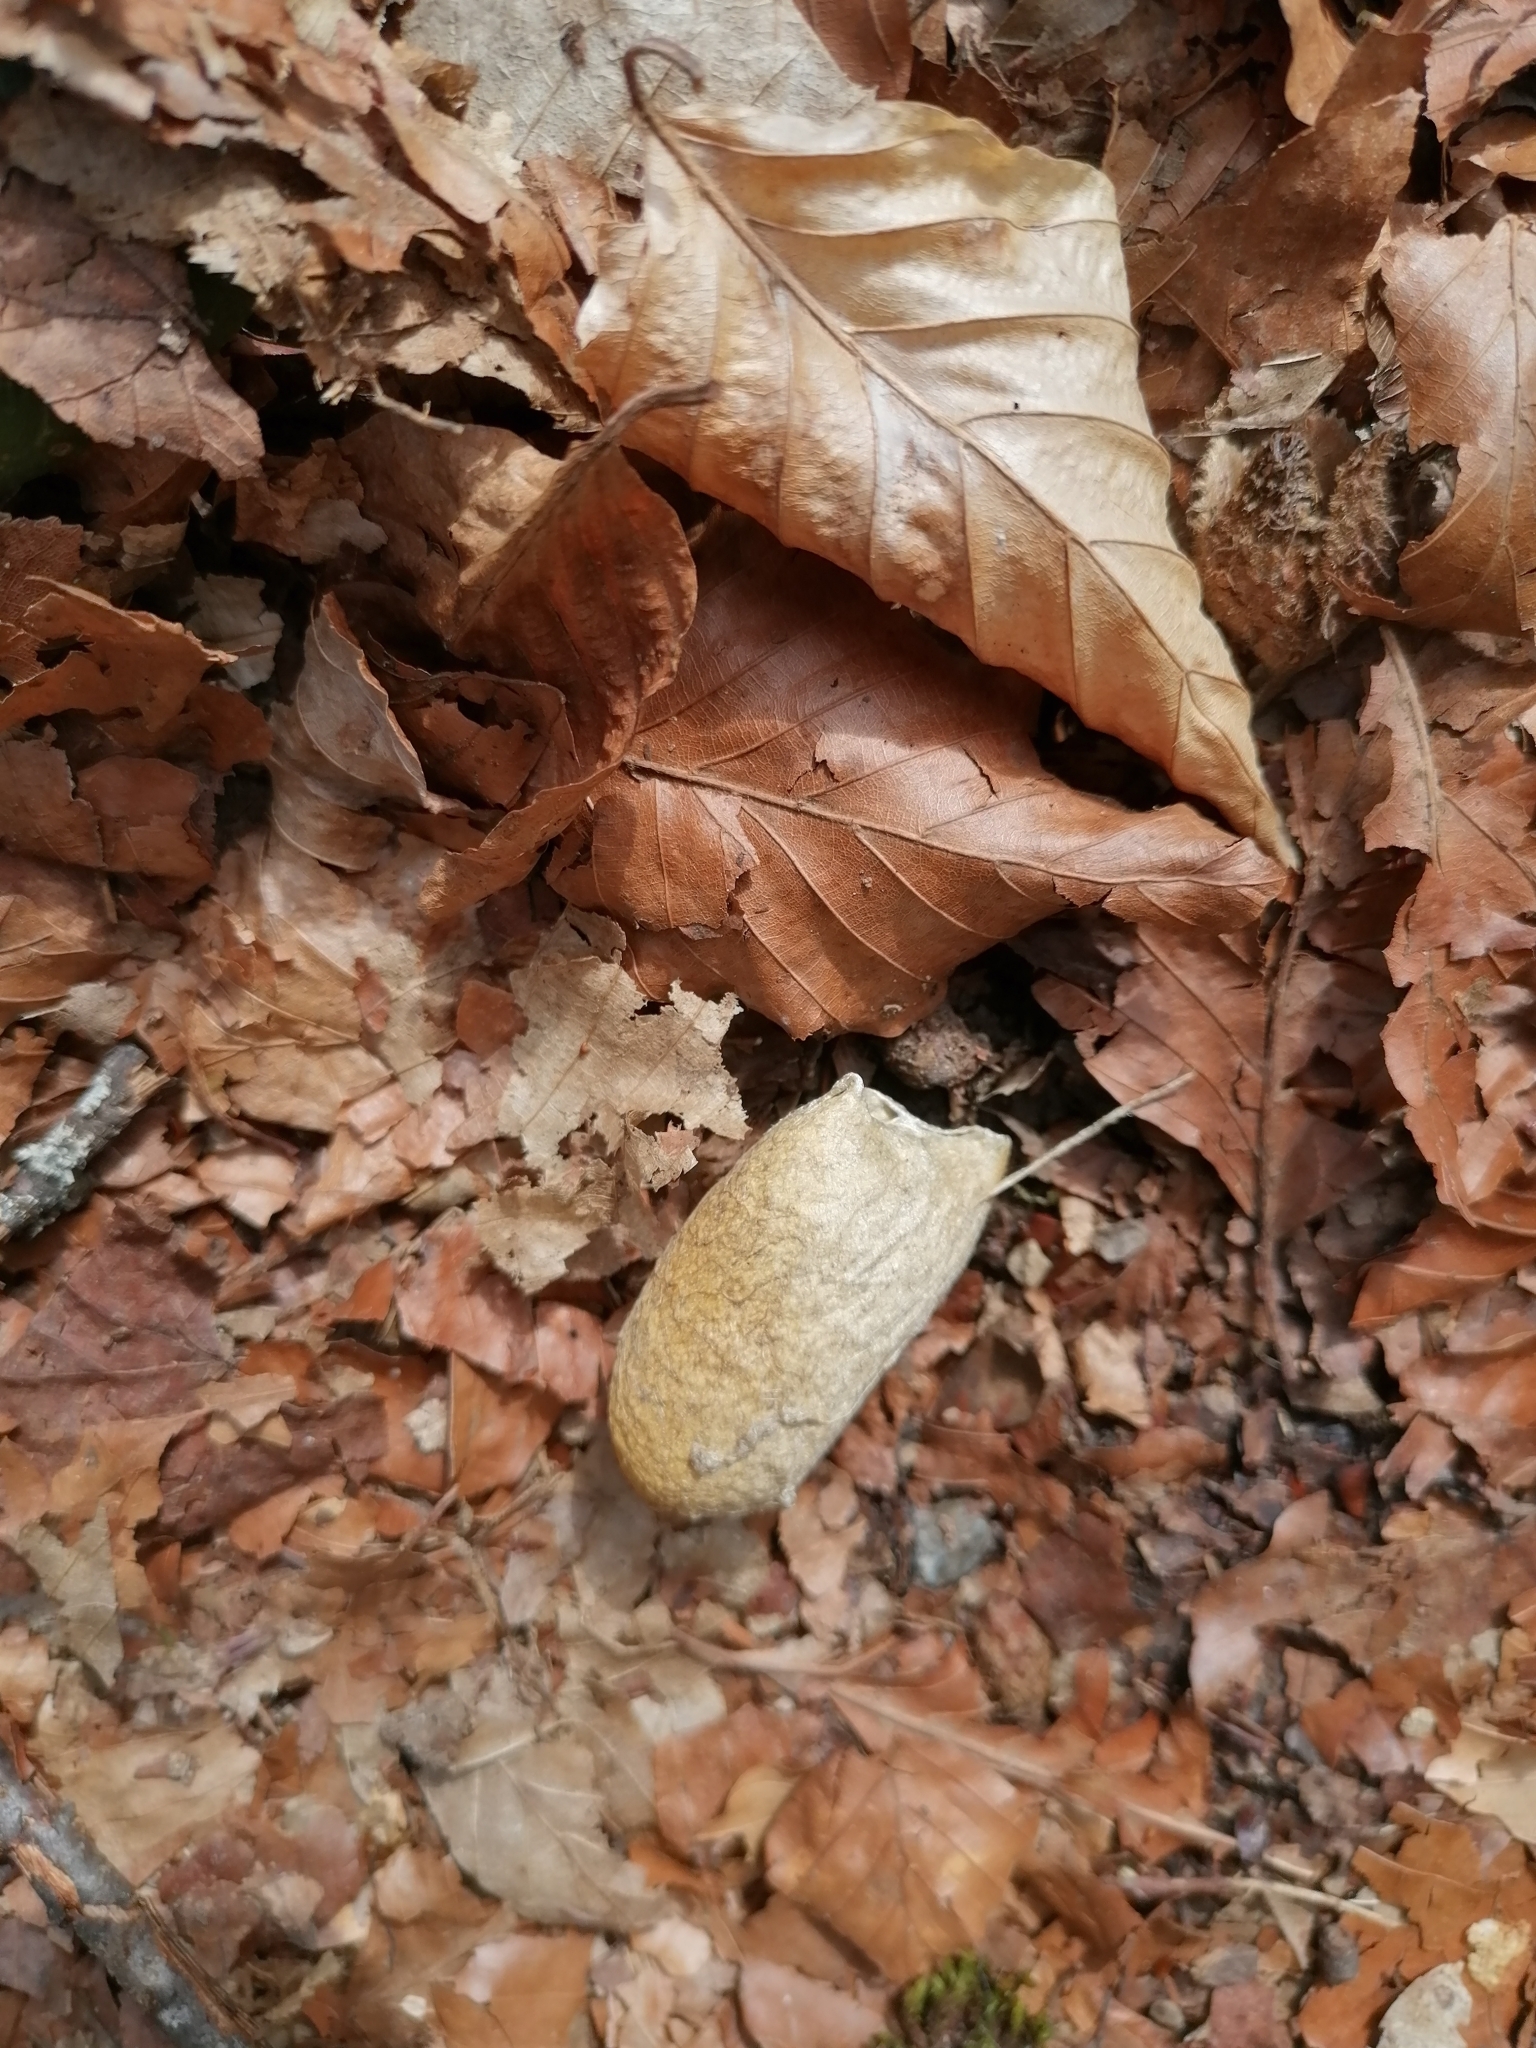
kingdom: Animalia
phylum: Arthropoda
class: Insecta
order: Lepidoptera
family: Saturniidae
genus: Antheraea
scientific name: Antheraea yamamai
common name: Japanese oak silk moth
